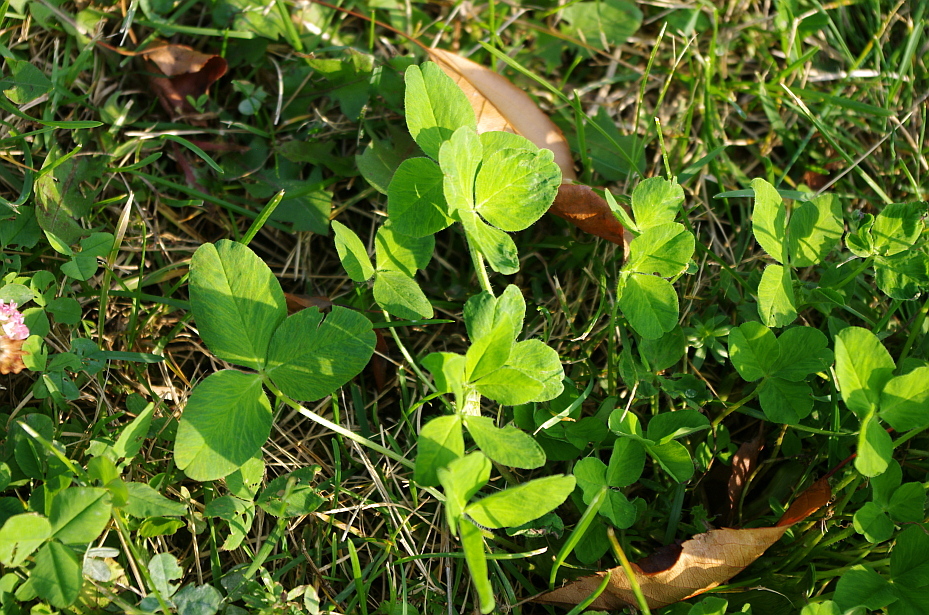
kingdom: Plantae
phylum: Tracheophyta
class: Magnoliopsida
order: Fabales
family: Fabaceae
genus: Trifolium
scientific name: Trifolium pratense
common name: Red clover
